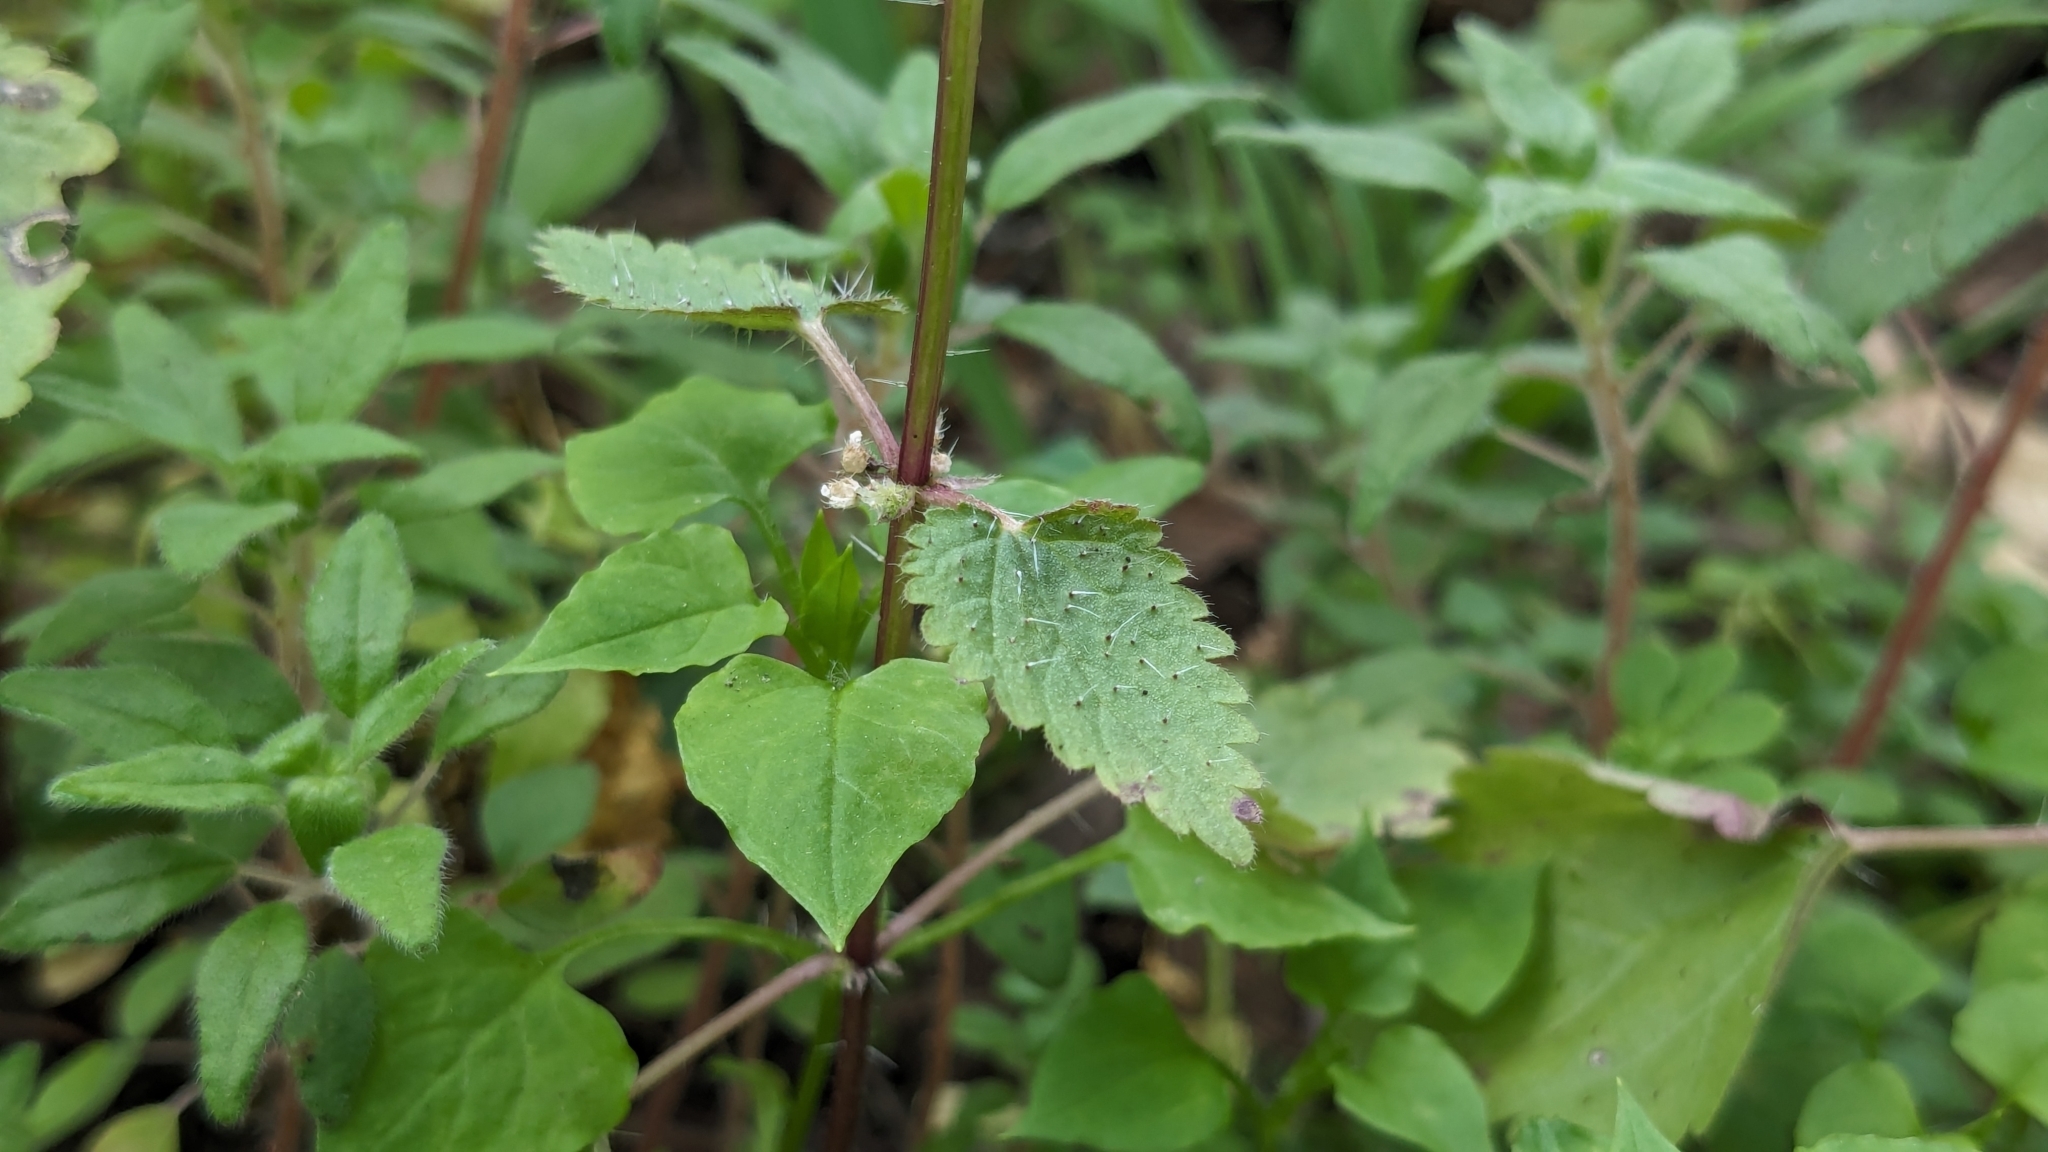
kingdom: Plantae
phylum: Tracheophyta
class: Magnoliopsida
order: Rosales
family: Urticaceae
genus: Urtica
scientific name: Urtica chamaedryoides
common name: Heart-leaf nettle
